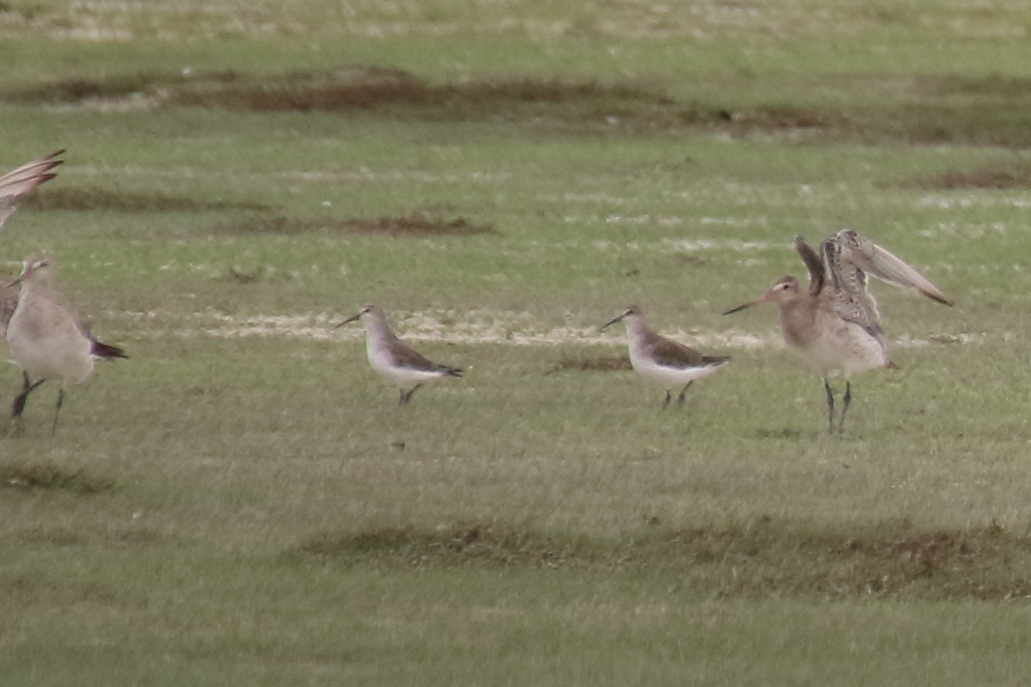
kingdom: Animalia
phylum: Chordata
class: Aves
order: Charadriiformes
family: Scolopacidae
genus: Calidris
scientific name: Calidris ferruginea
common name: Curlew sandpiper
